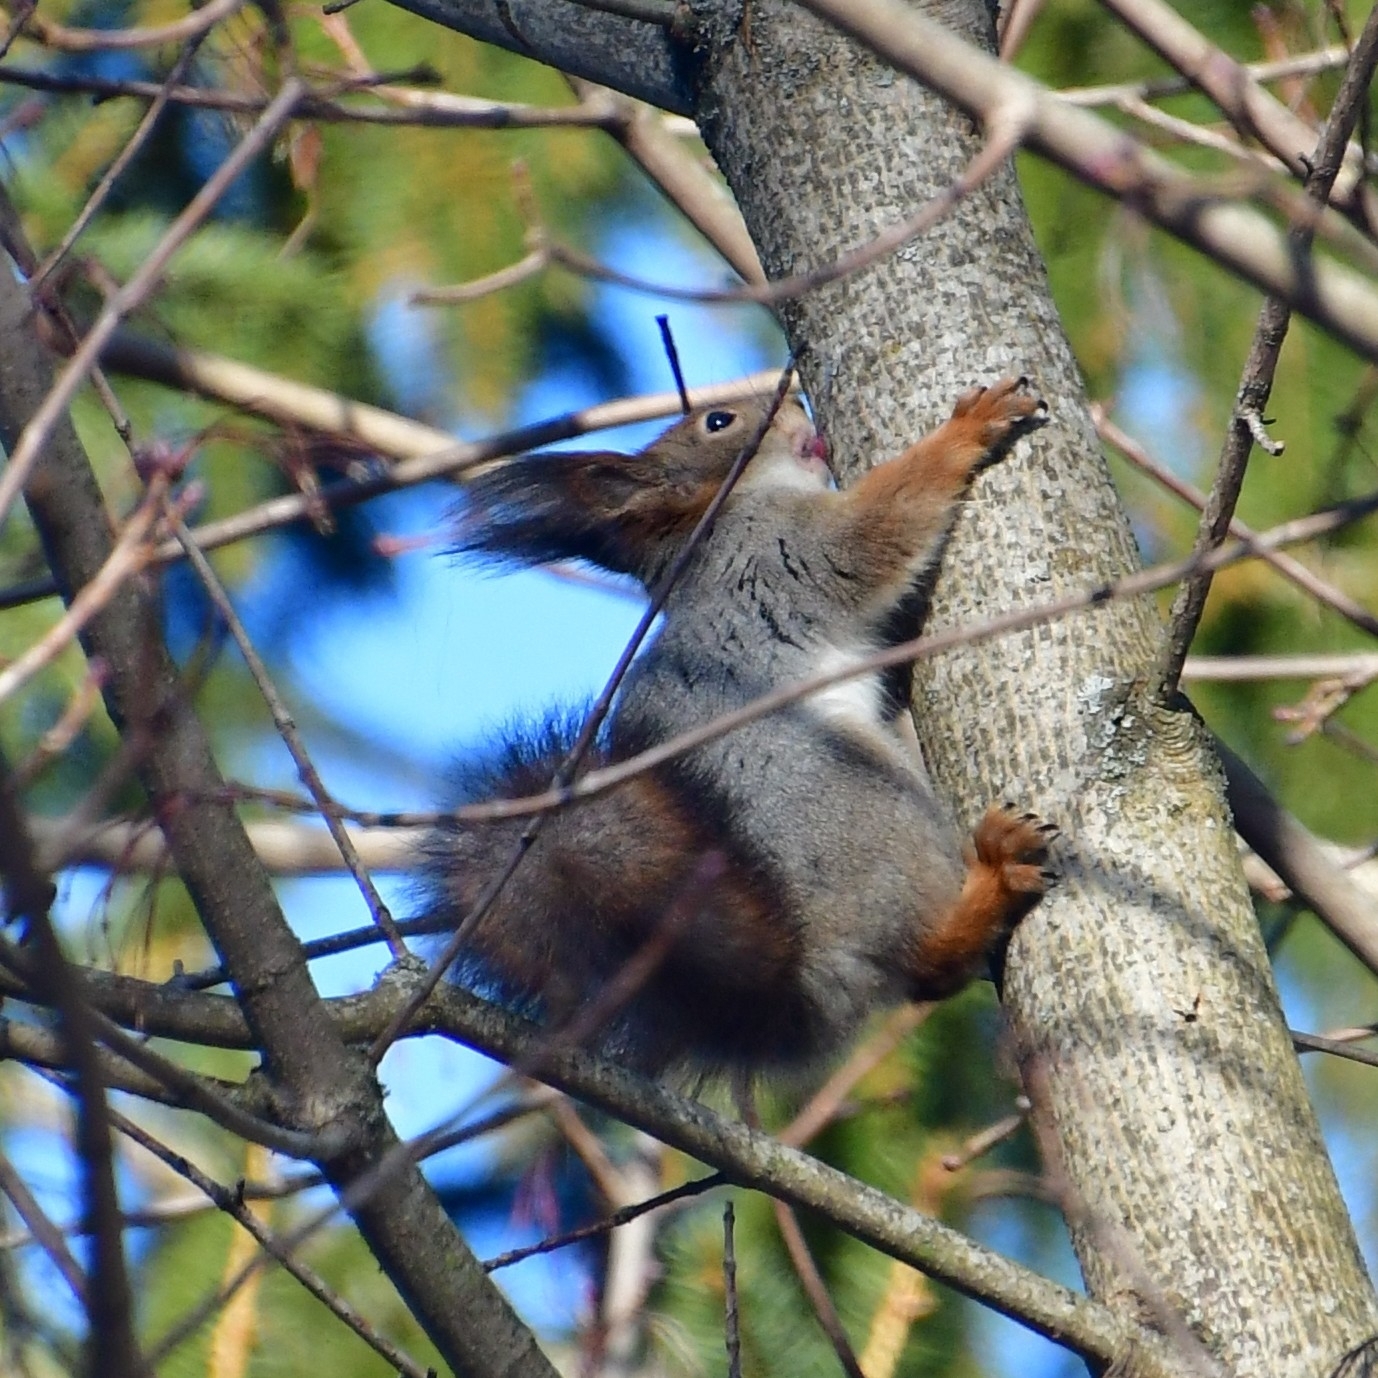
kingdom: Animalia
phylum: Chordata
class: Mammalia
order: Rodentia
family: Sciuridae
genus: Sciurus
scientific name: Sciurus vulgaris
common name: Eurasian red squirrel
